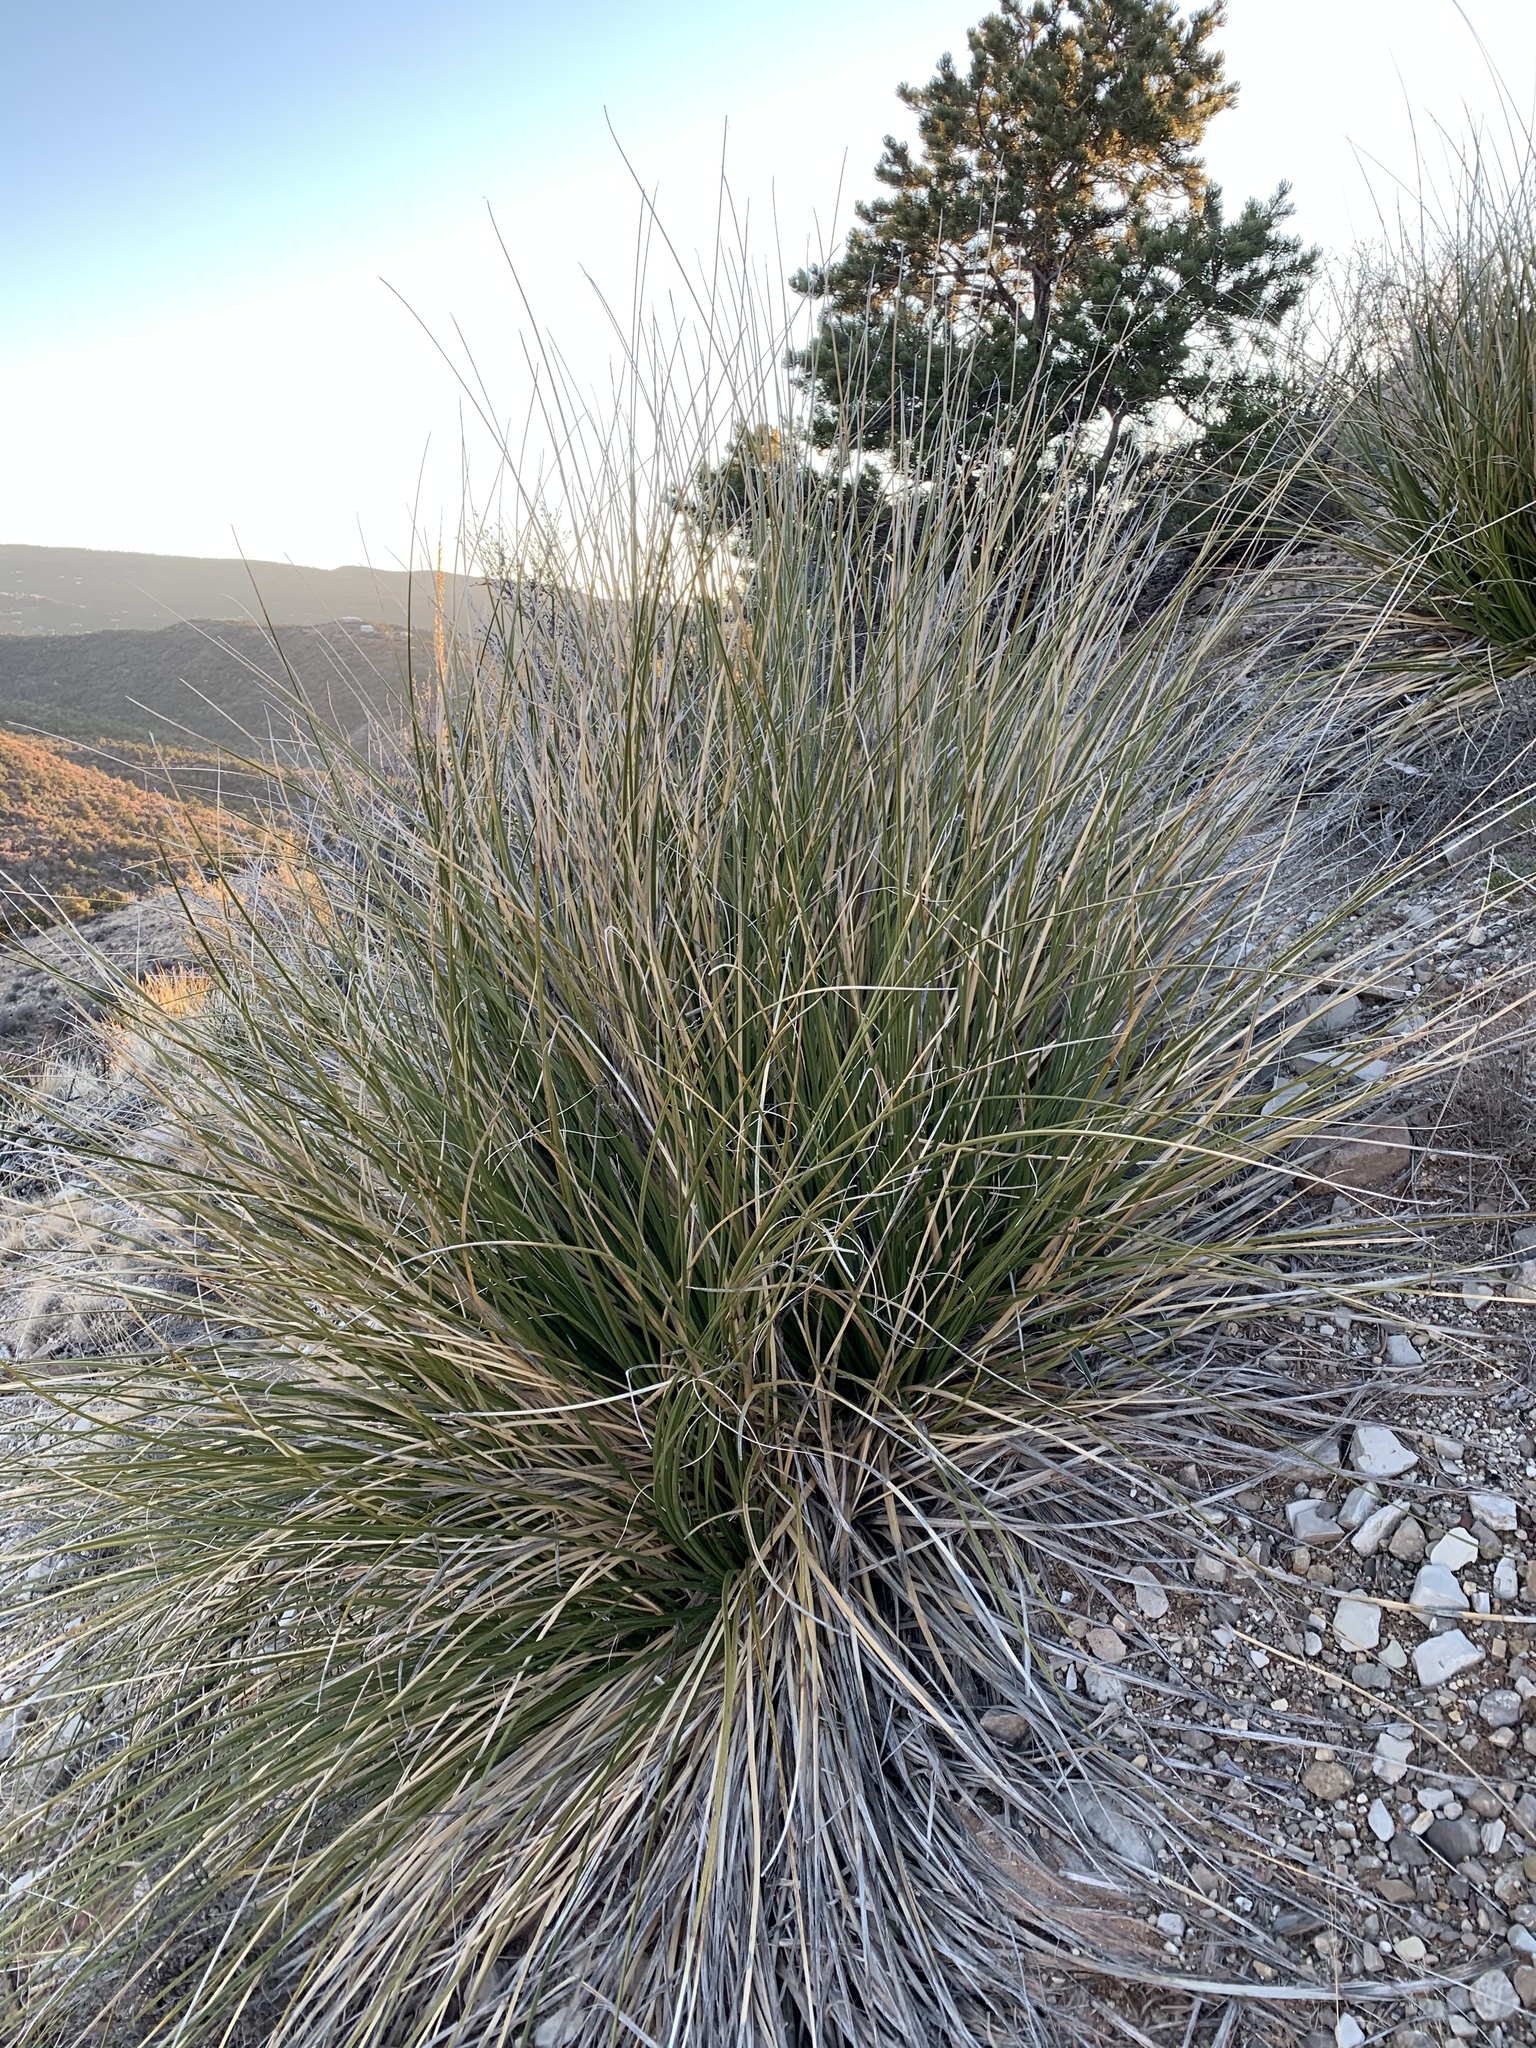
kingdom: Plantae
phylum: Tracheophyta
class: Liliopsida
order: Asparagales
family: Asparagaceae
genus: Nolina
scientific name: Nolina texana
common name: Texas sacahuiste
